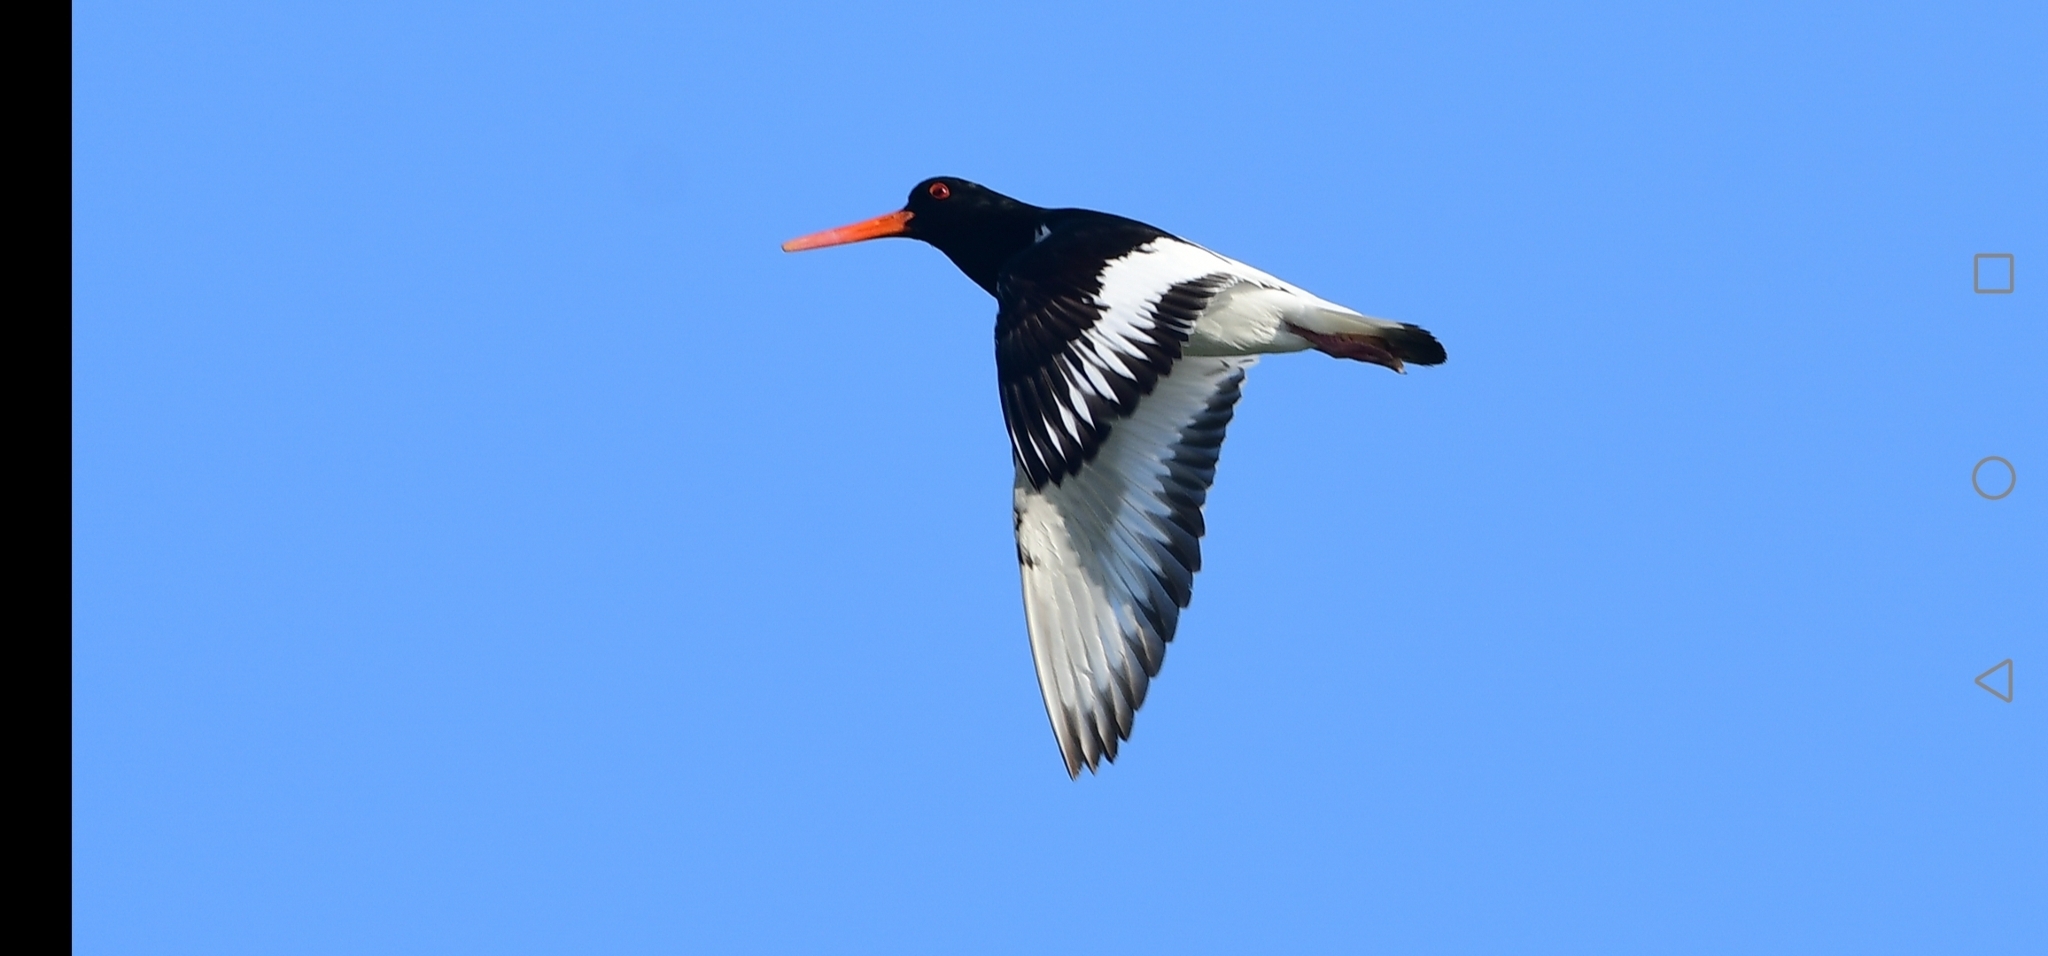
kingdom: Animalia
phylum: Chordata
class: Aves
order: Charadriiformes
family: Haematopodidae
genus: Haematopus
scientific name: Haematopus ostralegus
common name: Eurasian oystercatcher
